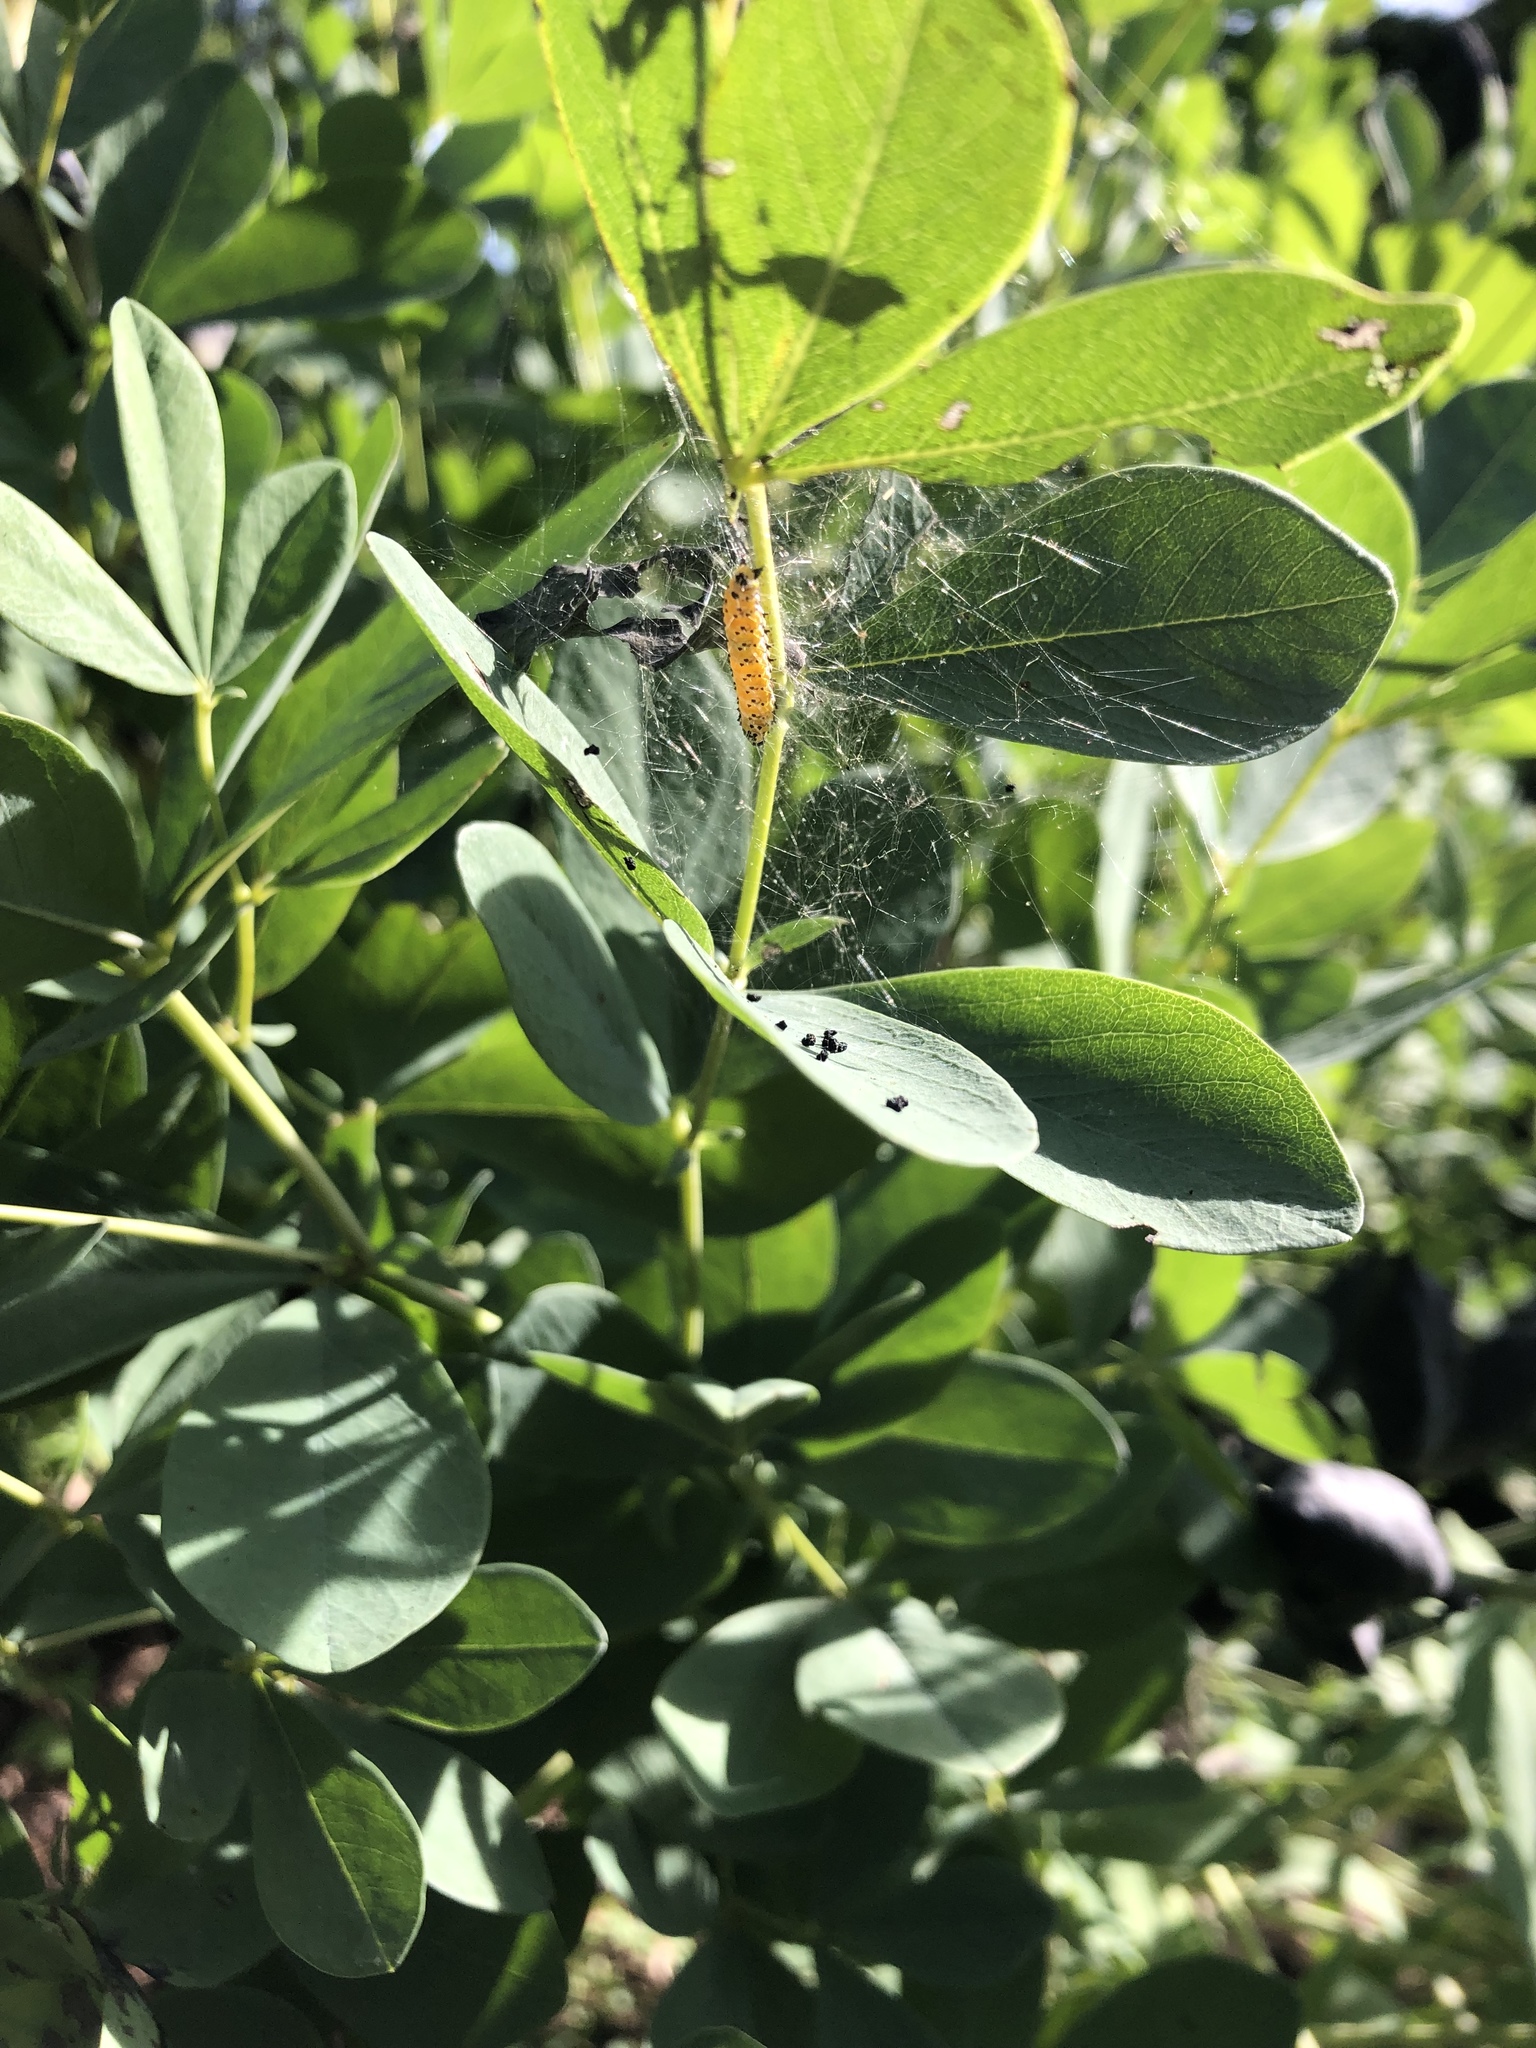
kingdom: Animalia
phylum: Arthropoda
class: Insecta
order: Lepidoptera
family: Crambidae
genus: Uresiphita
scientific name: Uresiphita reversalis
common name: Genista broom moth
